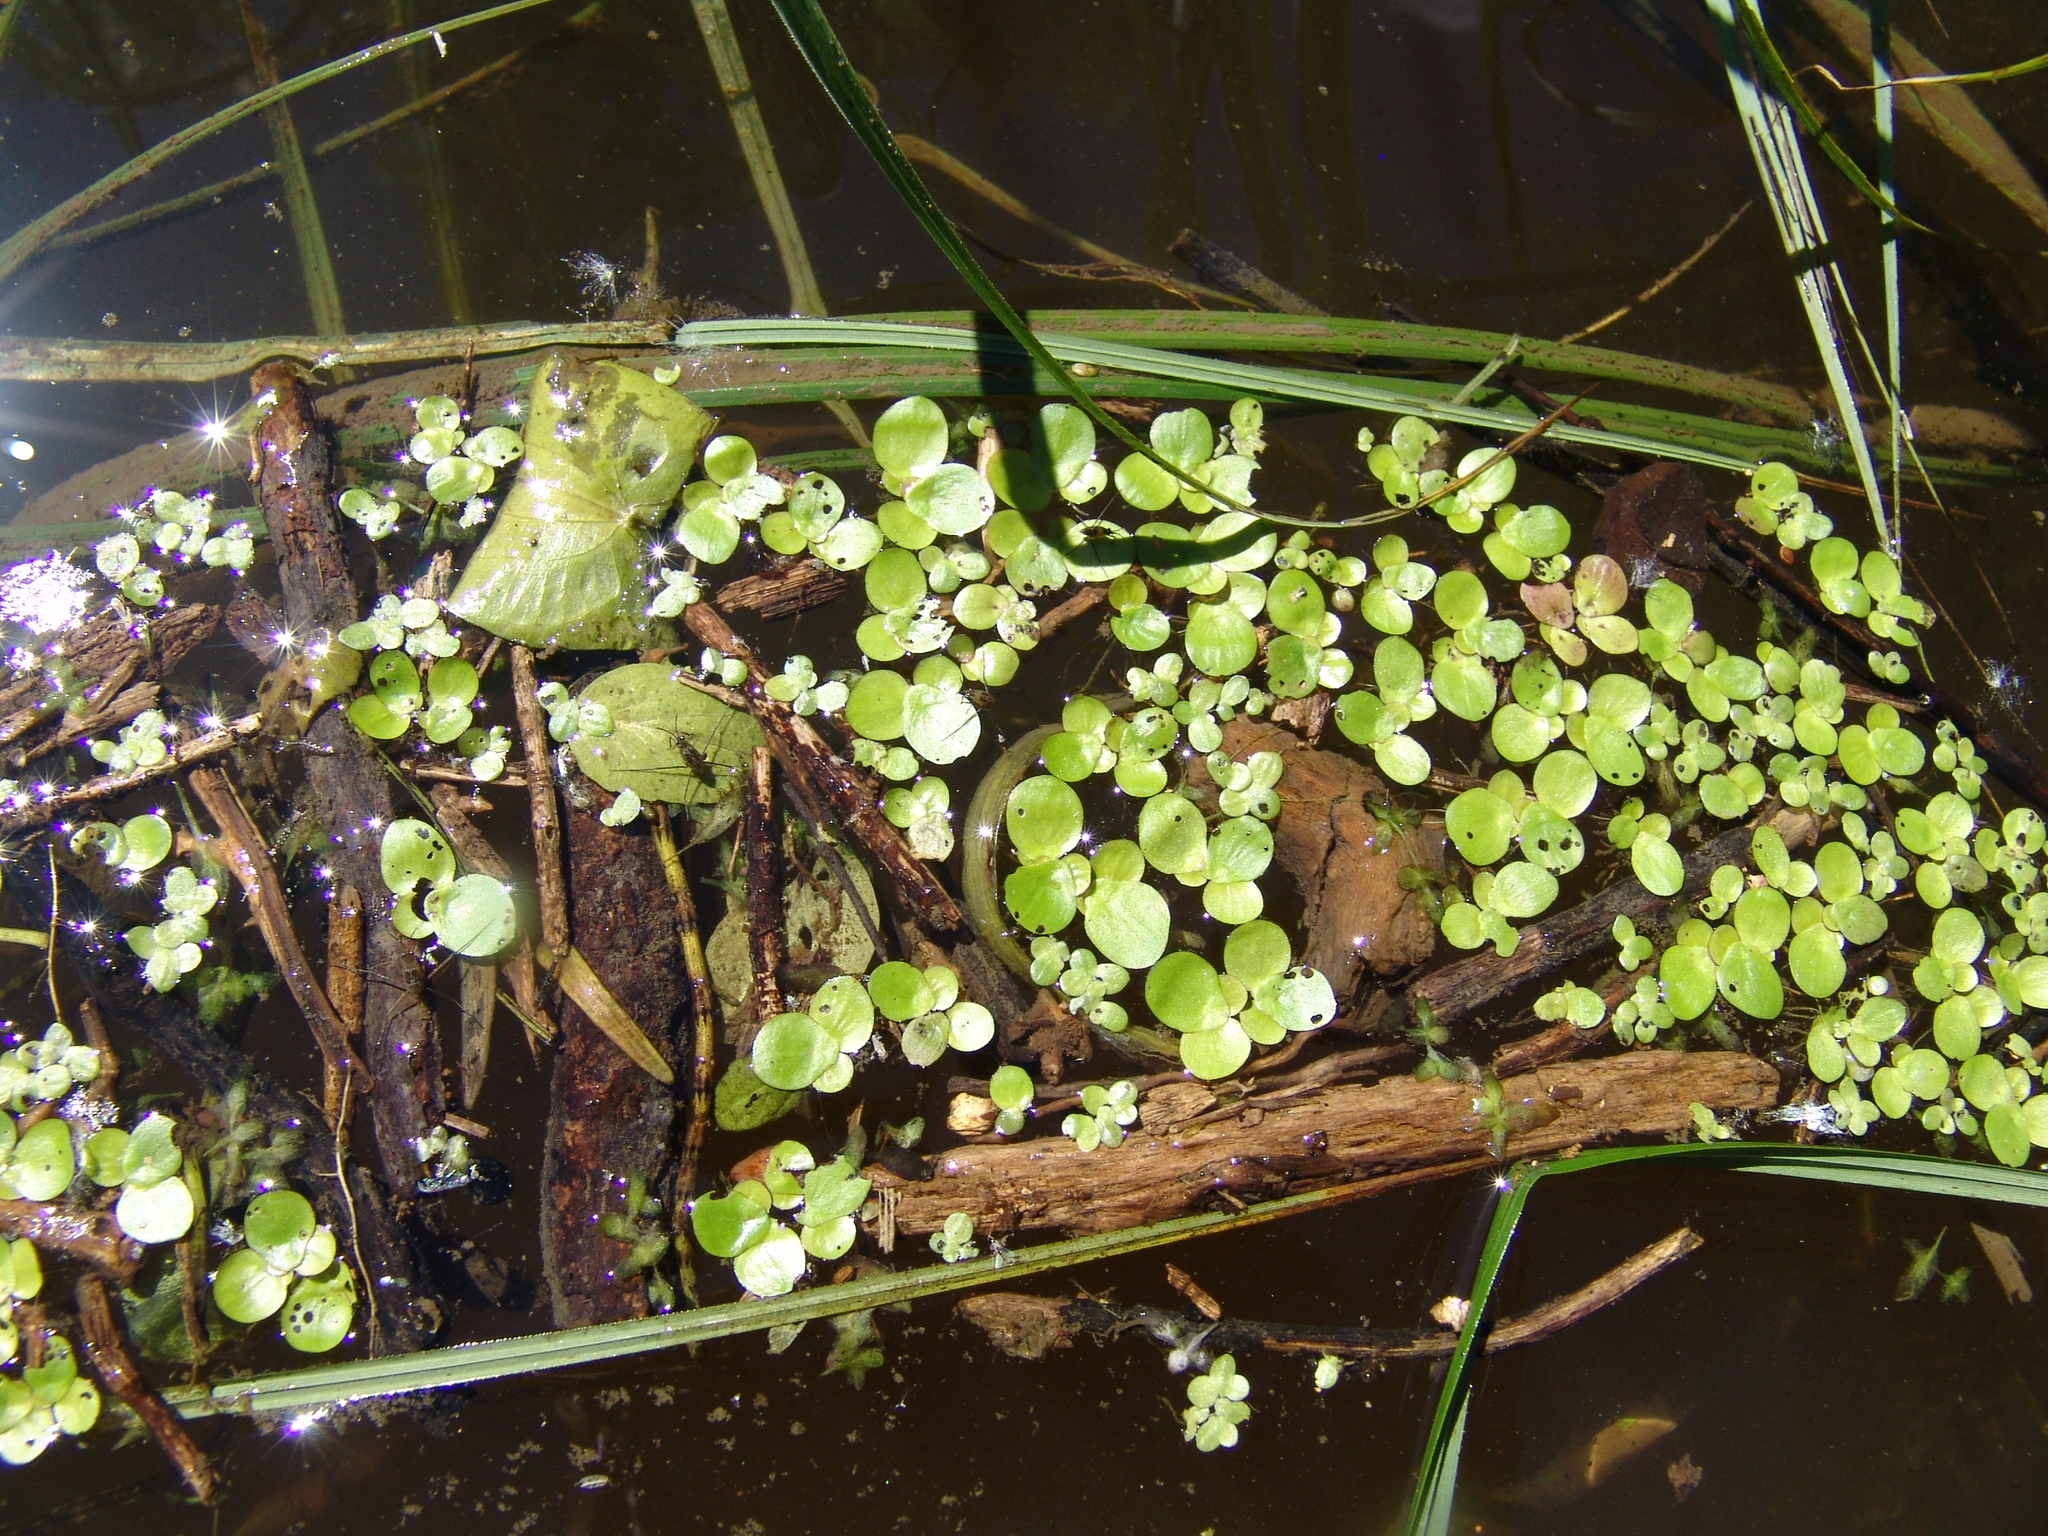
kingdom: Plantae
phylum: Tracheophyta
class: Liliopsida
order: Alismatales
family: Araceae
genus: Spirodela
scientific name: Spirodela polyrhiza
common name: Great duckweed
